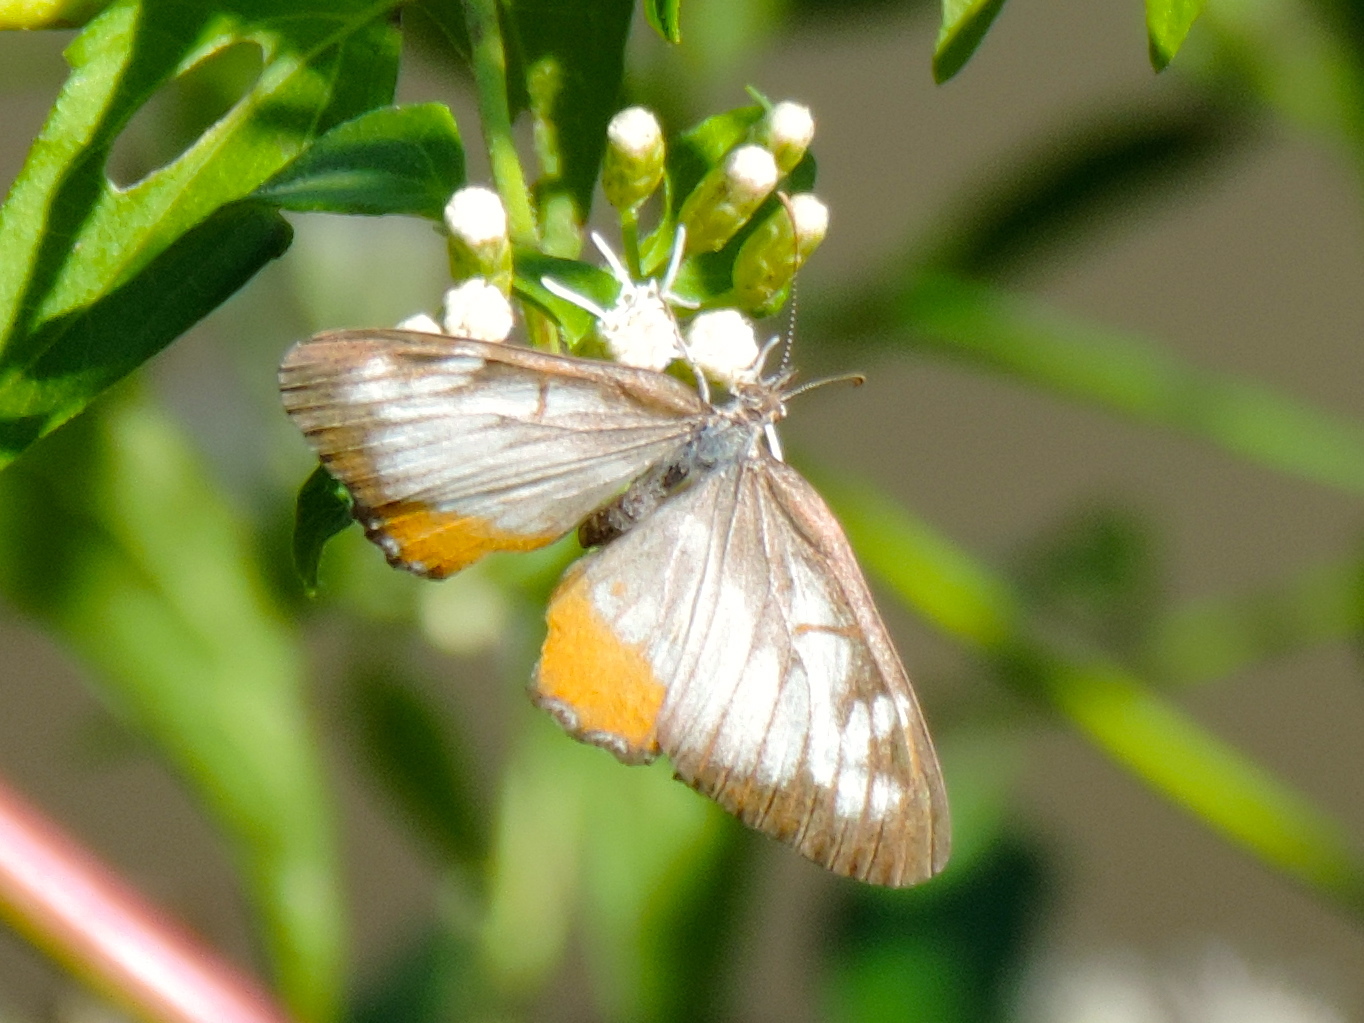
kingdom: Animalia
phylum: Arthropoda
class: Insecta
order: Lepidoptera
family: Nymphalidae
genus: Mestra
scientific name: Mestra amymone
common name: Common mestra
